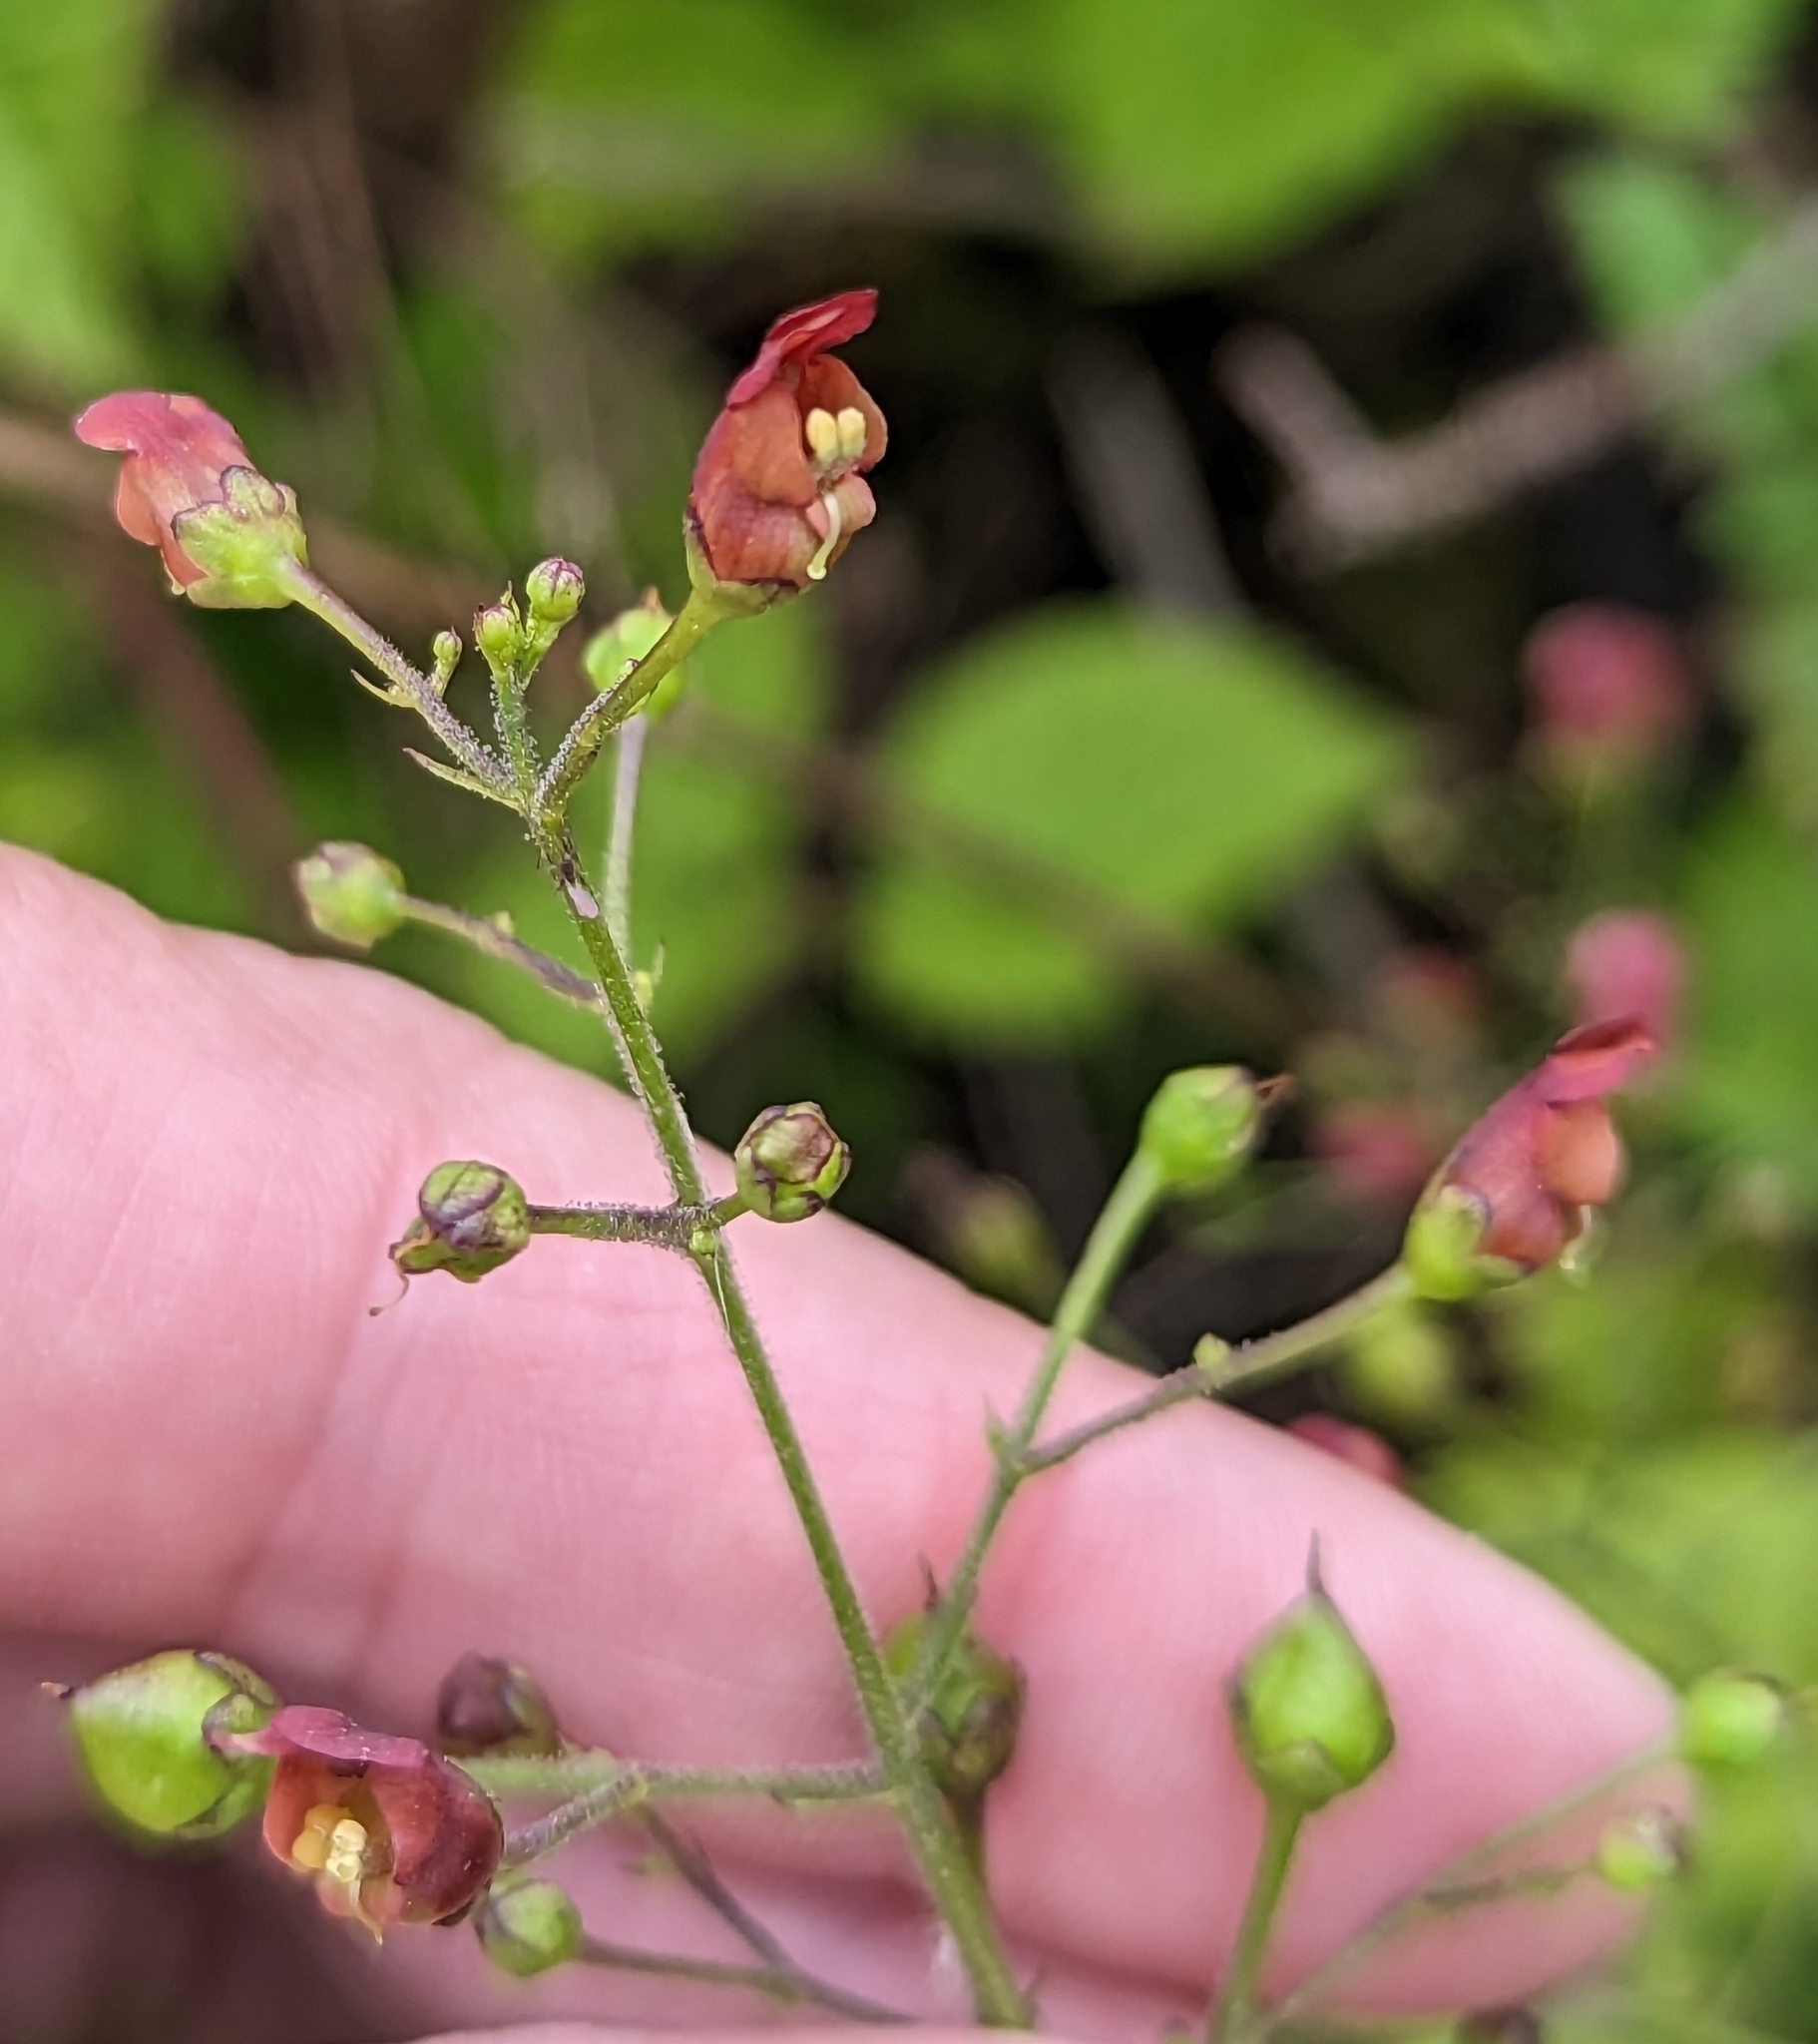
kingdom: Plantae
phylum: Tracheophyta
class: Magnoliopsida
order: Lamiales
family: Scrophulariaceae
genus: Scrophularia
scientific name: Scrophularia californica
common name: California figwort
